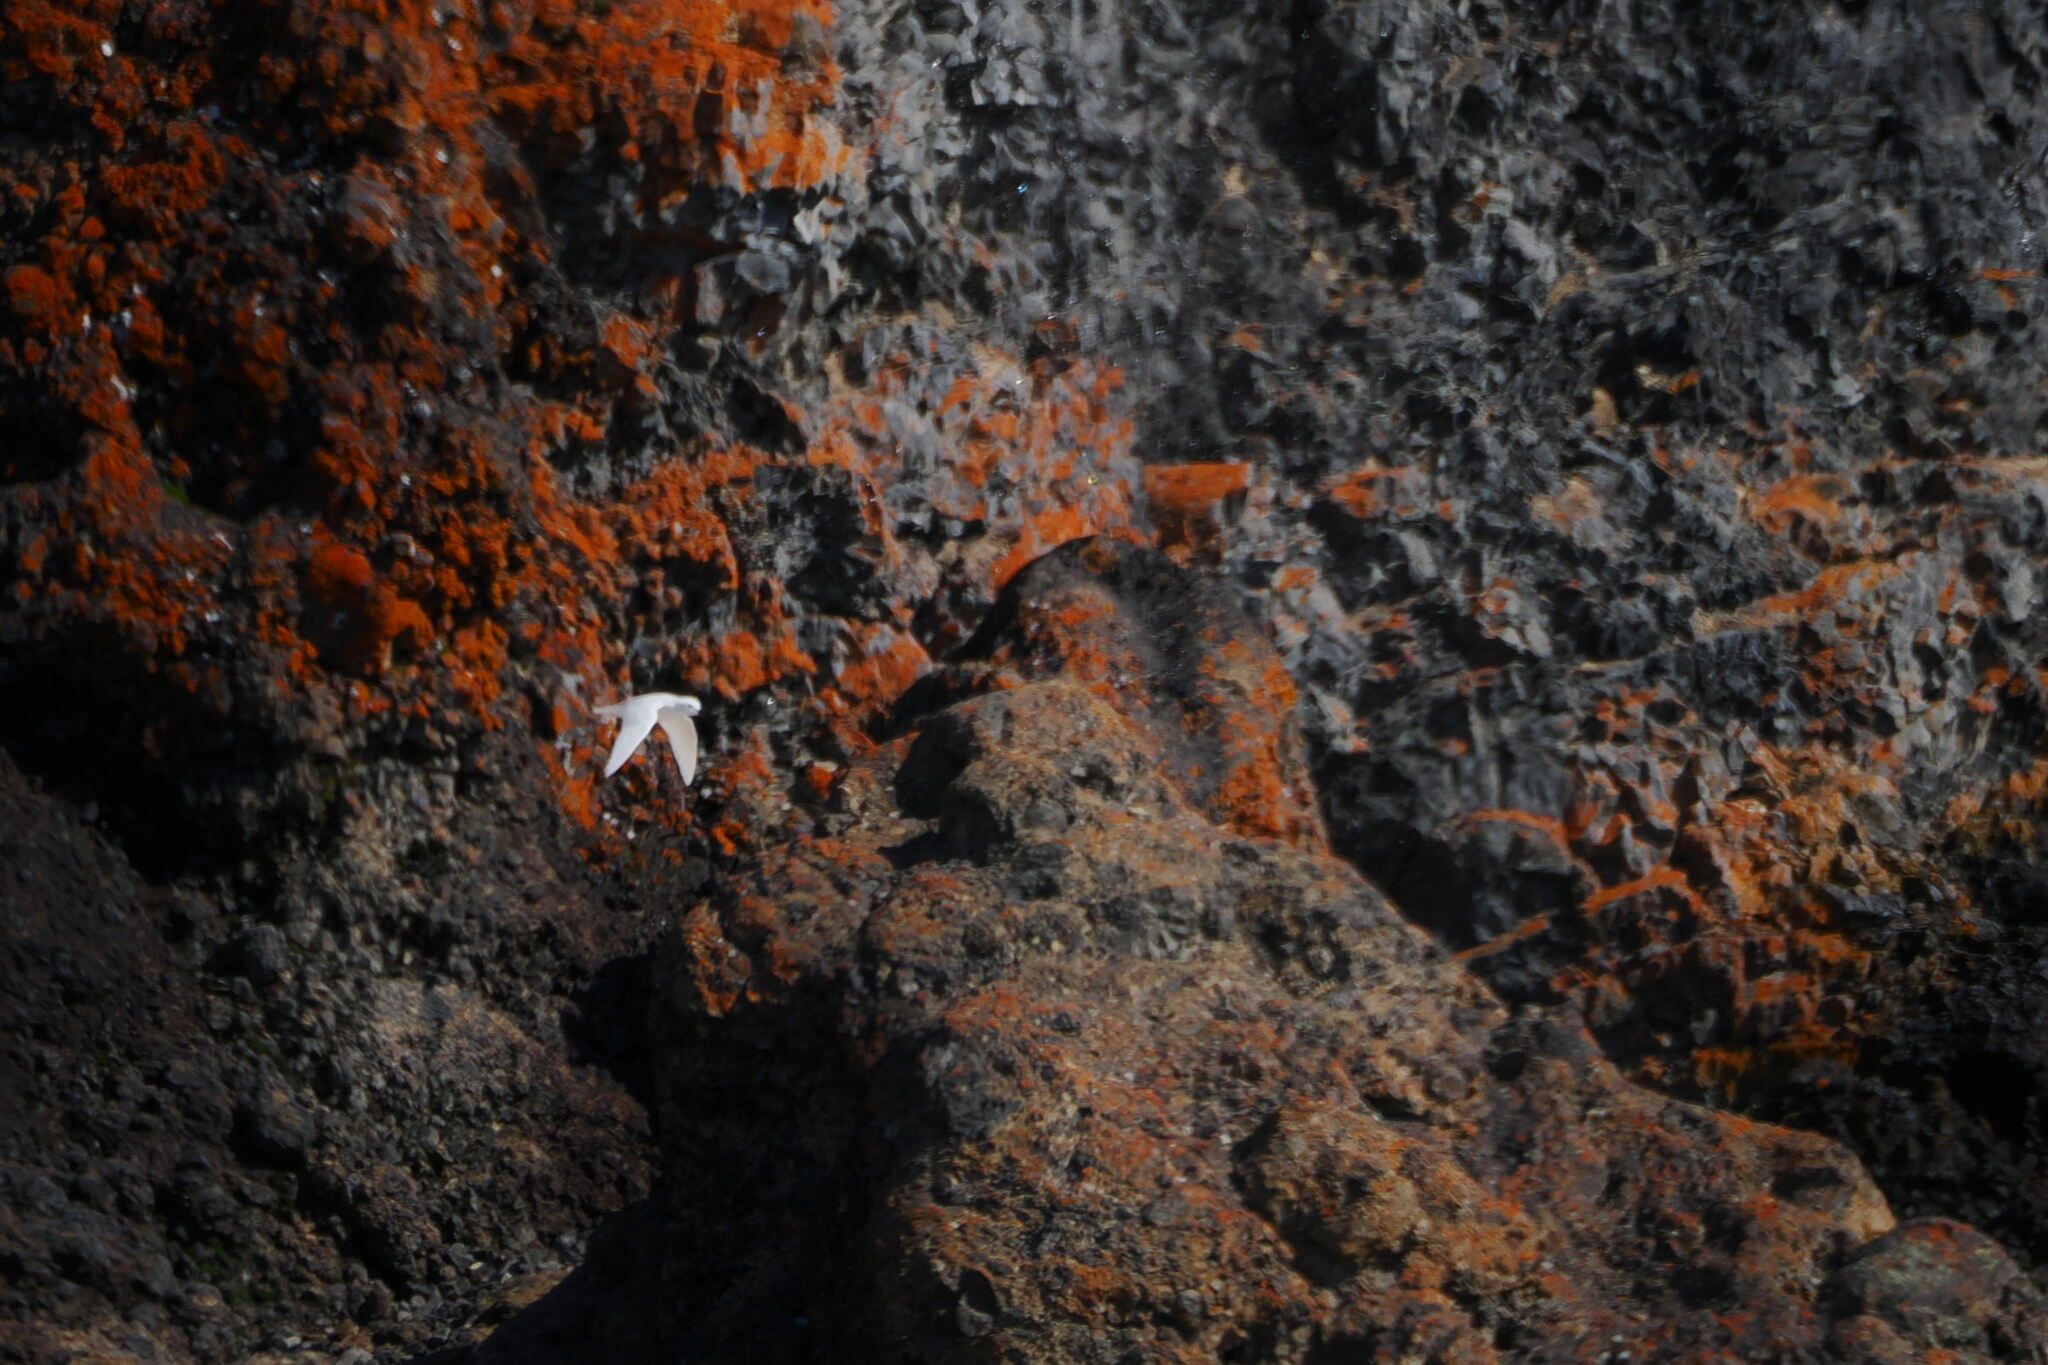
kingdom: Animalia
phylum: Chordata
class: Aves
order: Procellariiformes
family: Procellariidae
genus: Pagodroma
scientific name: Pagodroma nivea
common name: Snow petrel
